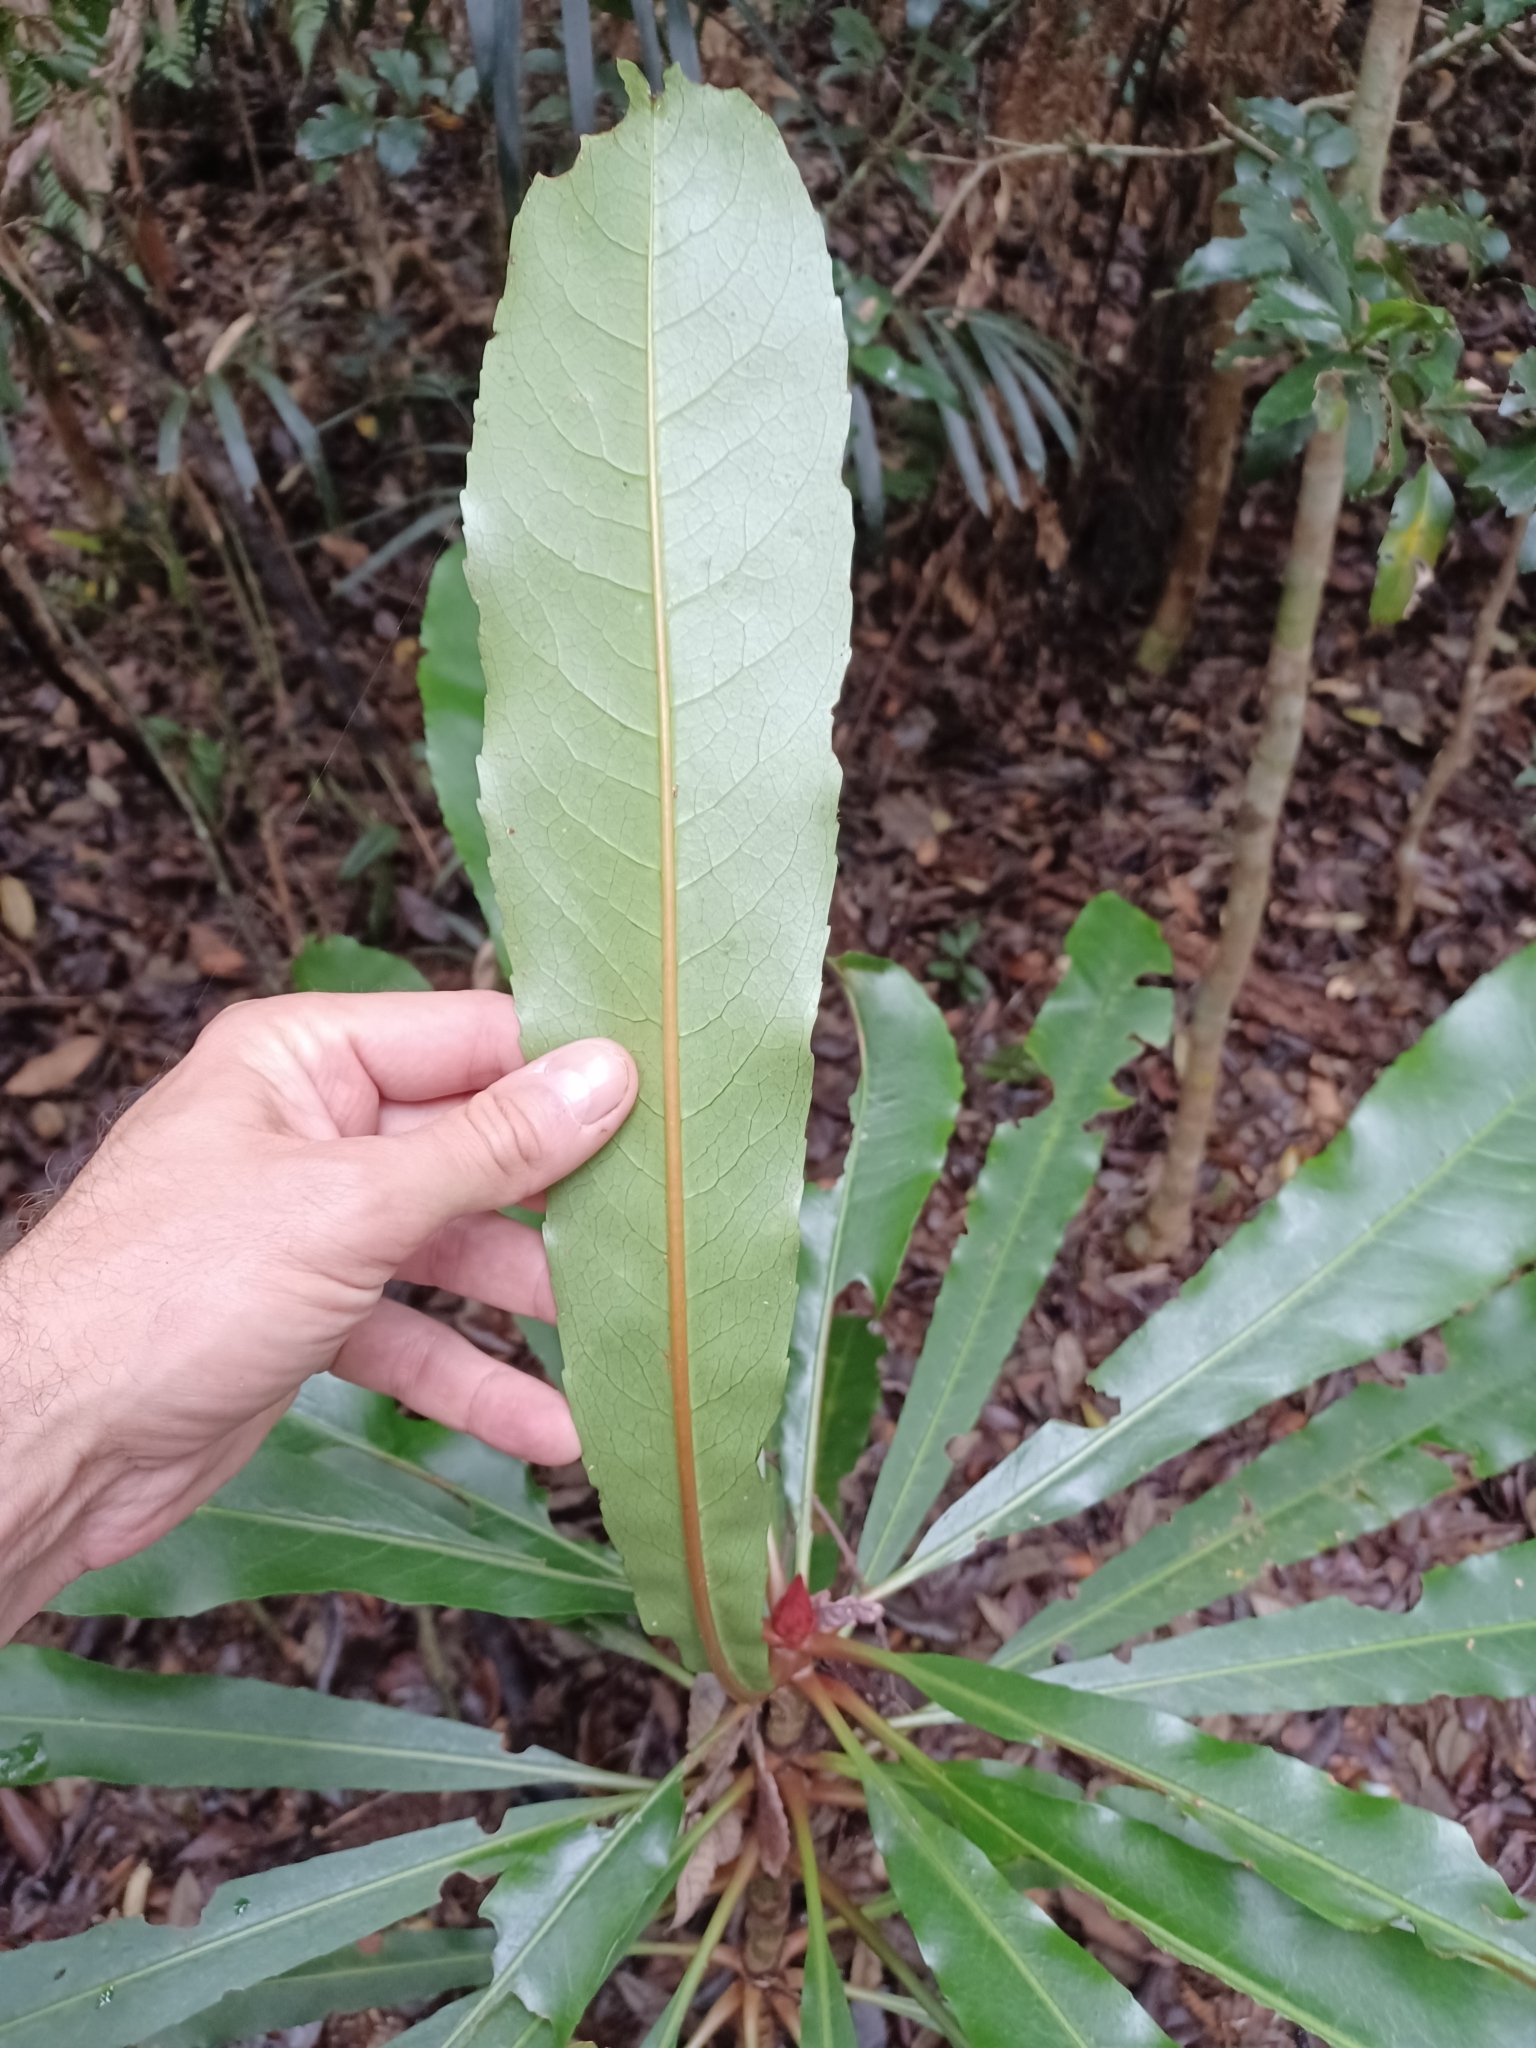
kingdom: Plantae
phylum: Tracheophyta
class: Magnoliopsida
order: Escalloniales
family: Escalloniaceae
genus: Anopterus
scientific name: Anopterus macleayanus
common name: Tasmanian-laurel
